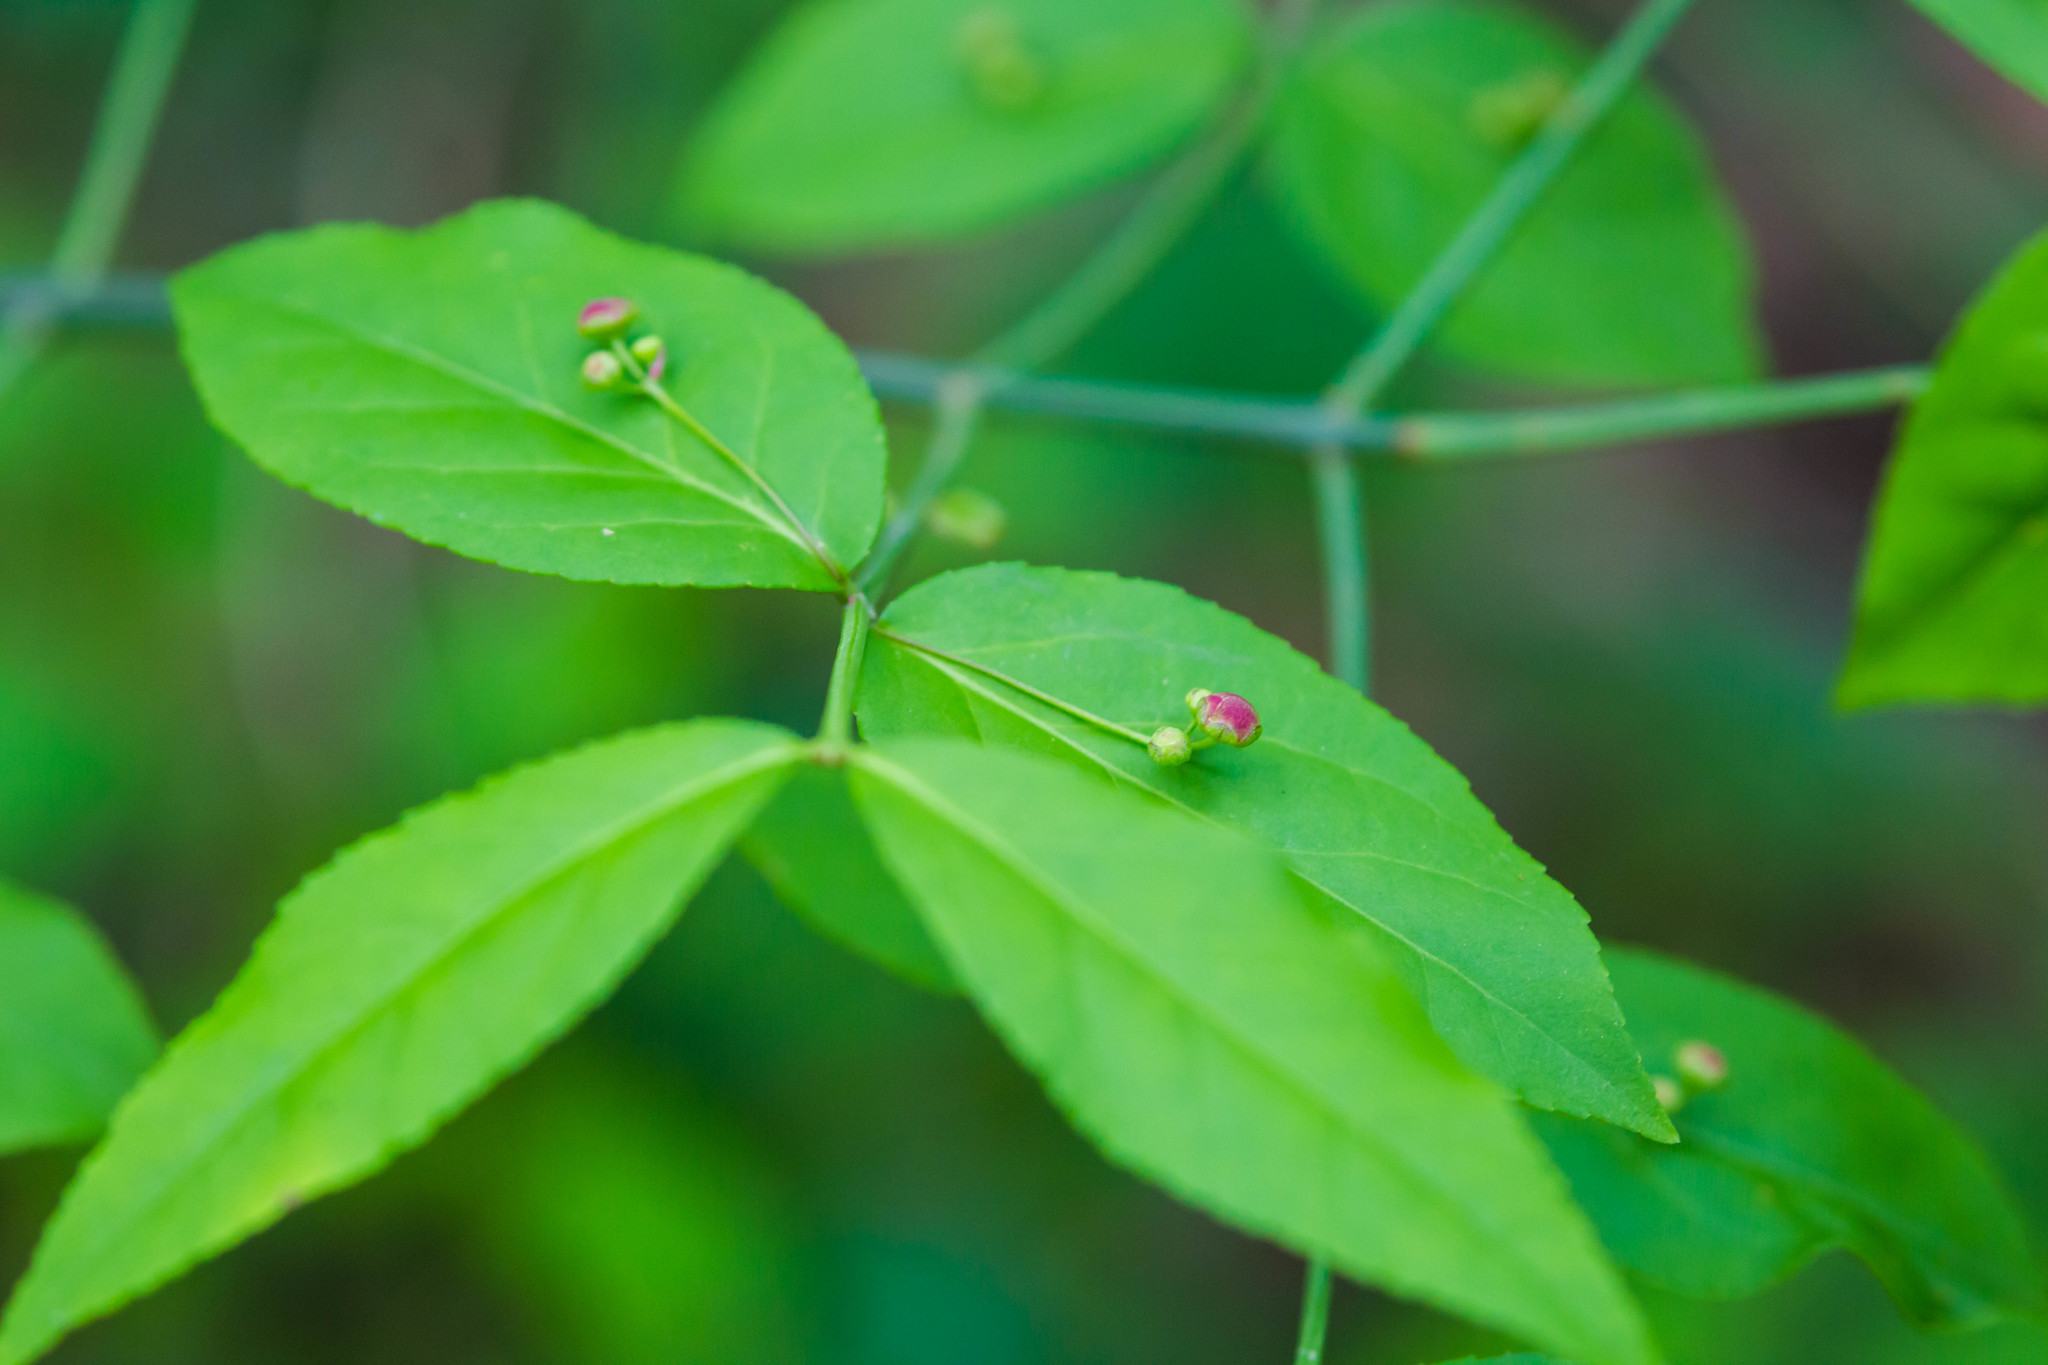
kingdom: Plantae
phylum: Tracheophyta
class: Magnoliopsida
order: Celastrales
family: Celastraceae
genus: Euonymus
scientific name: Euonymus americanus
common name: Bursting-heart
